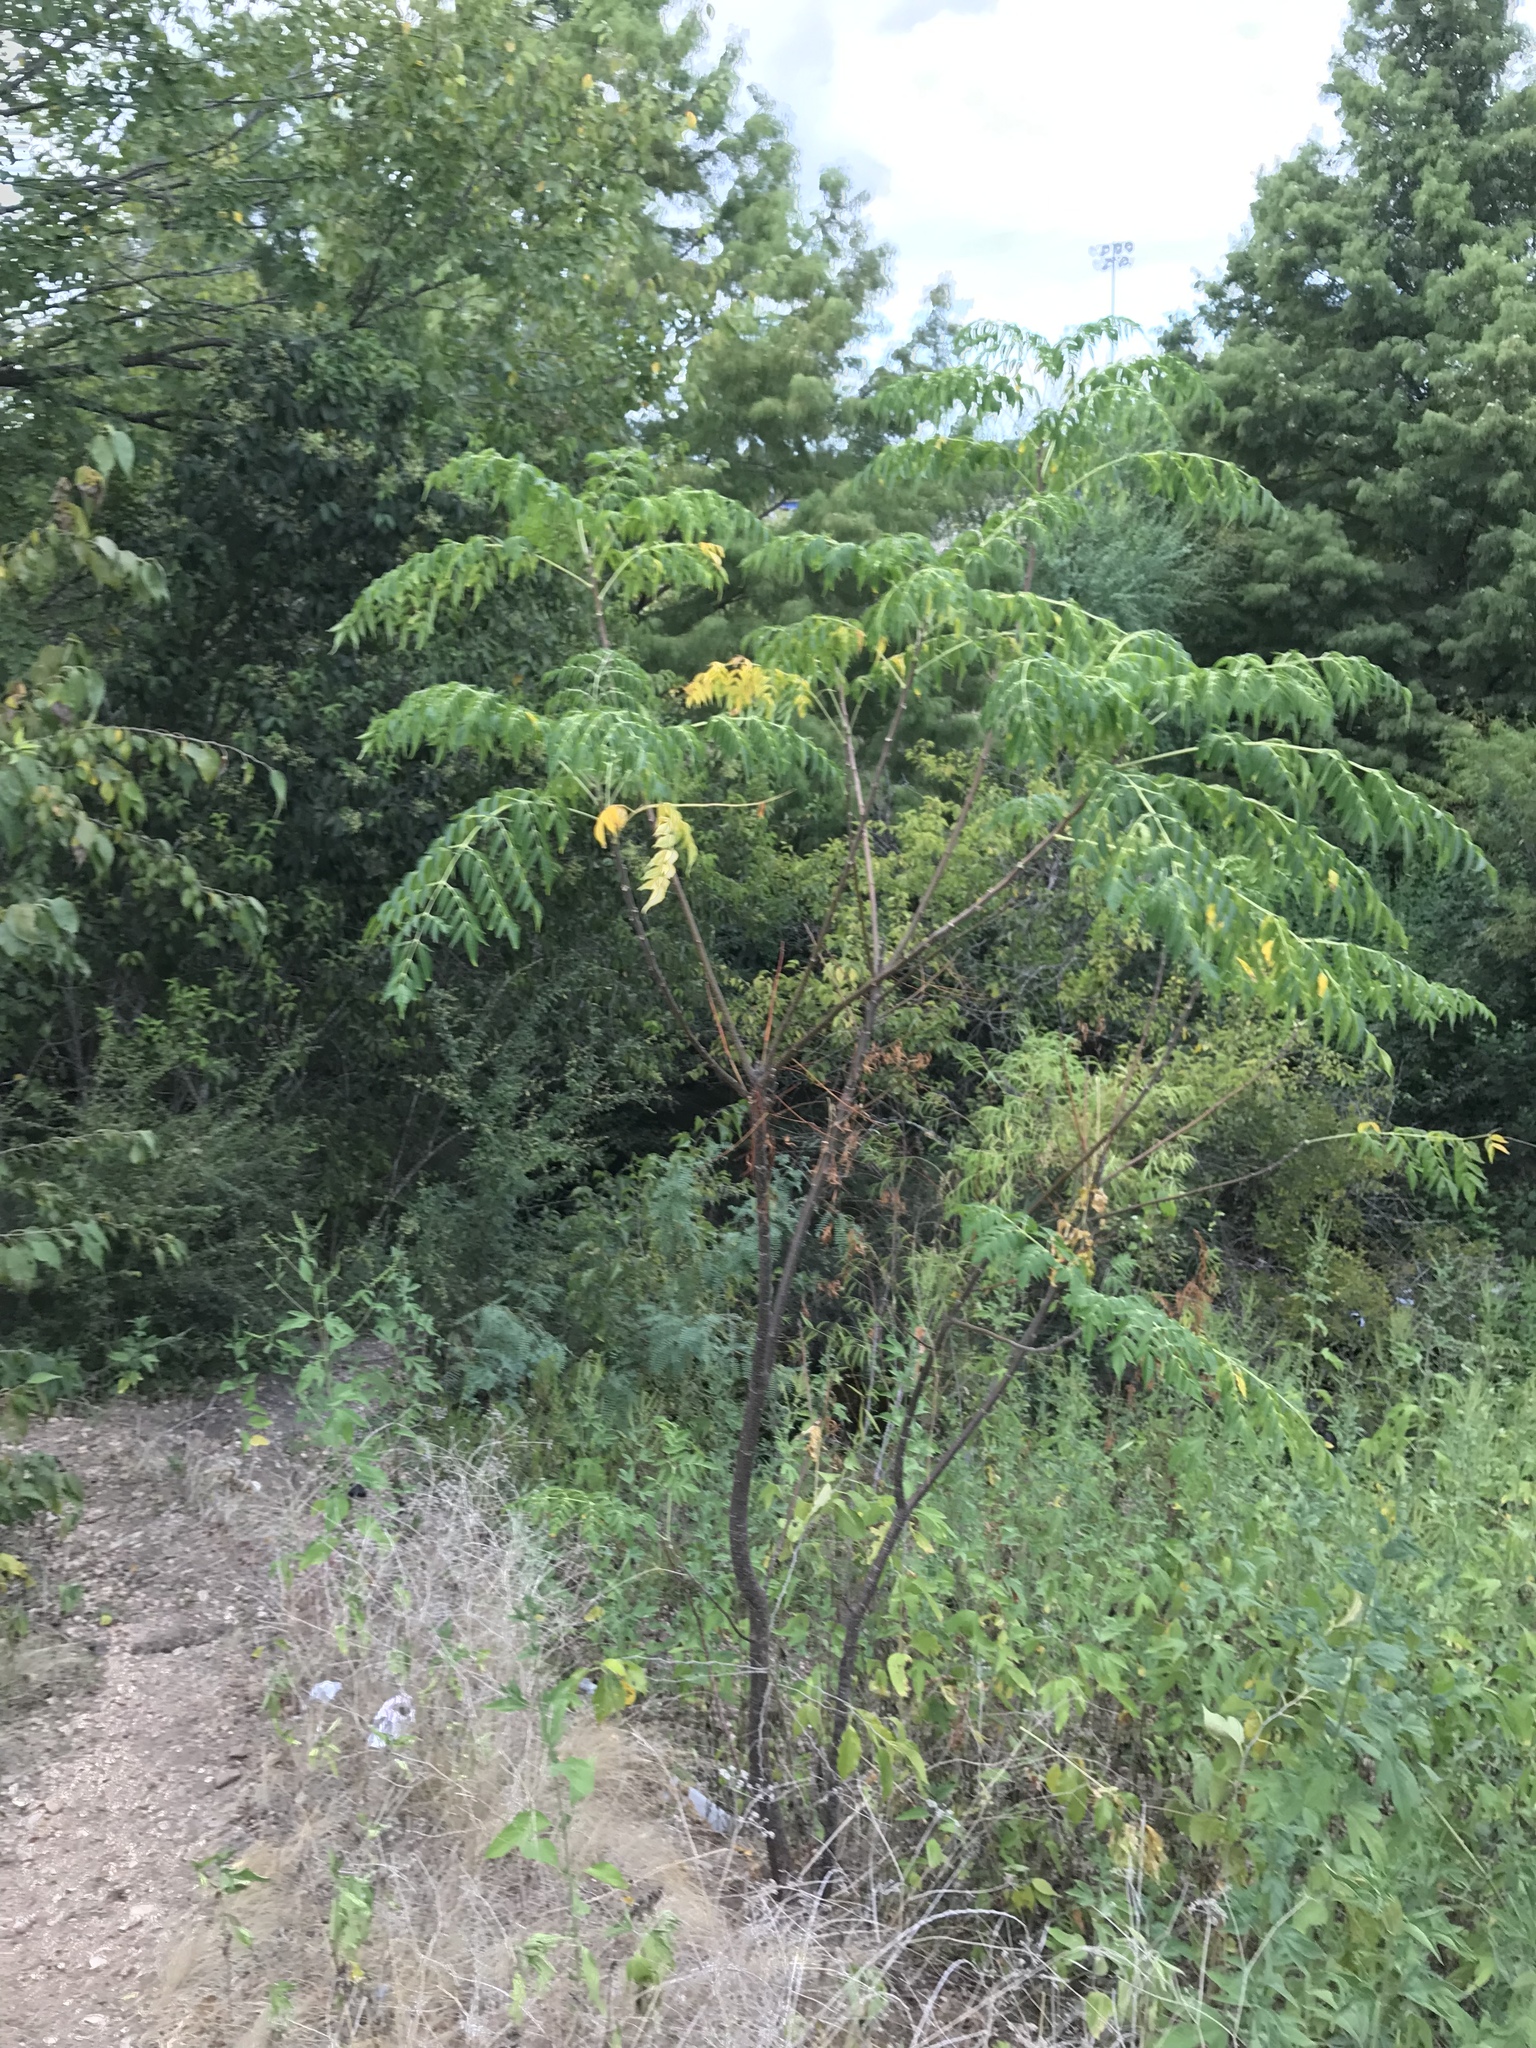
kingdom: Plantae
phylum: Tracheophyta
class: Magnoliopsida
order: Sapindales
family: Meliaceae
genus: Melia
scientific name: Melia azedarach
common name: Chinaberrytree
